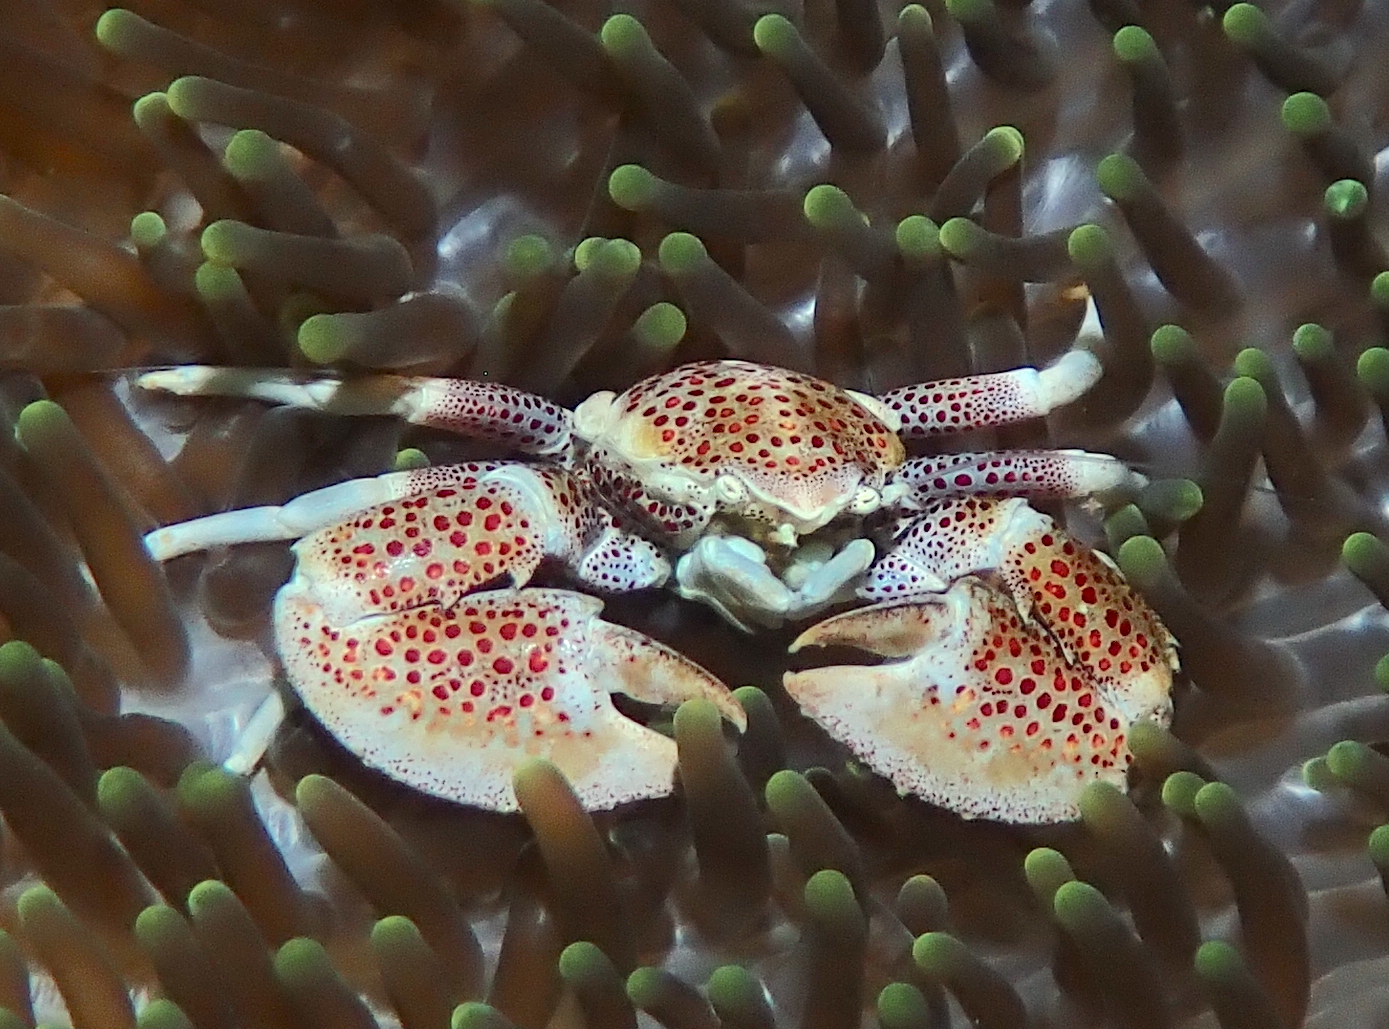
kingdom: Animalia
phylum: Arthropoda
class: Malacostraca
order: Decapoda
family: Porcellanidae
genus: Neopetrolisthes
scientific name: Neopetrolisthes maculatus
